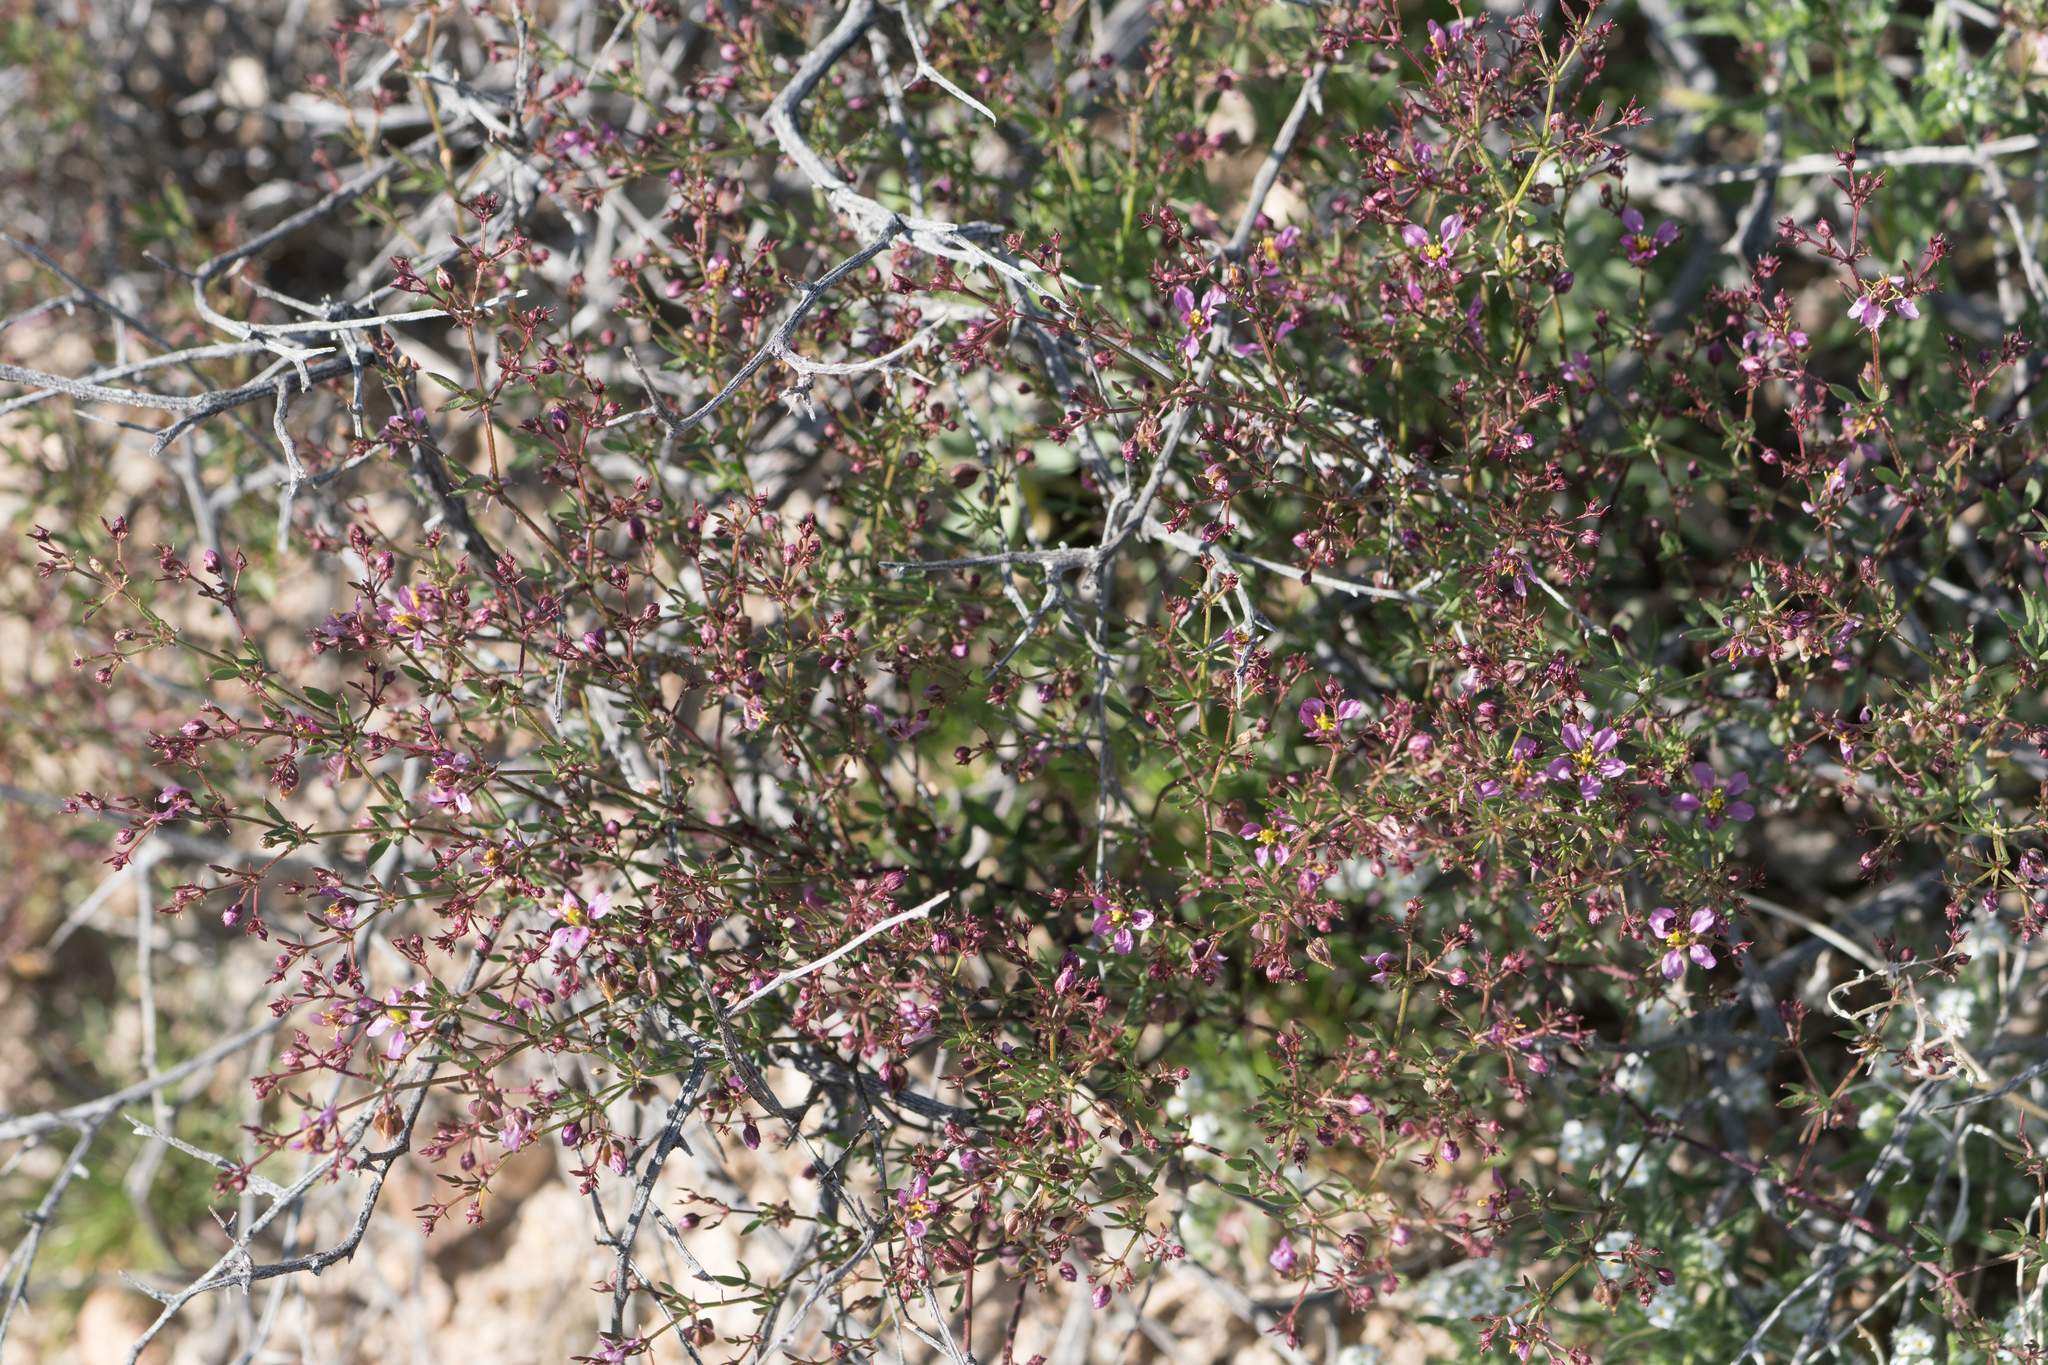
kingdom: Plantae
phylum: Tracheophyta
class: Magnoliopsida
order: Zygophyllales
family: Zygophyllaceae
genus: Fagonia
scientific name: Fagonia laevis
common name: California fagonbush
